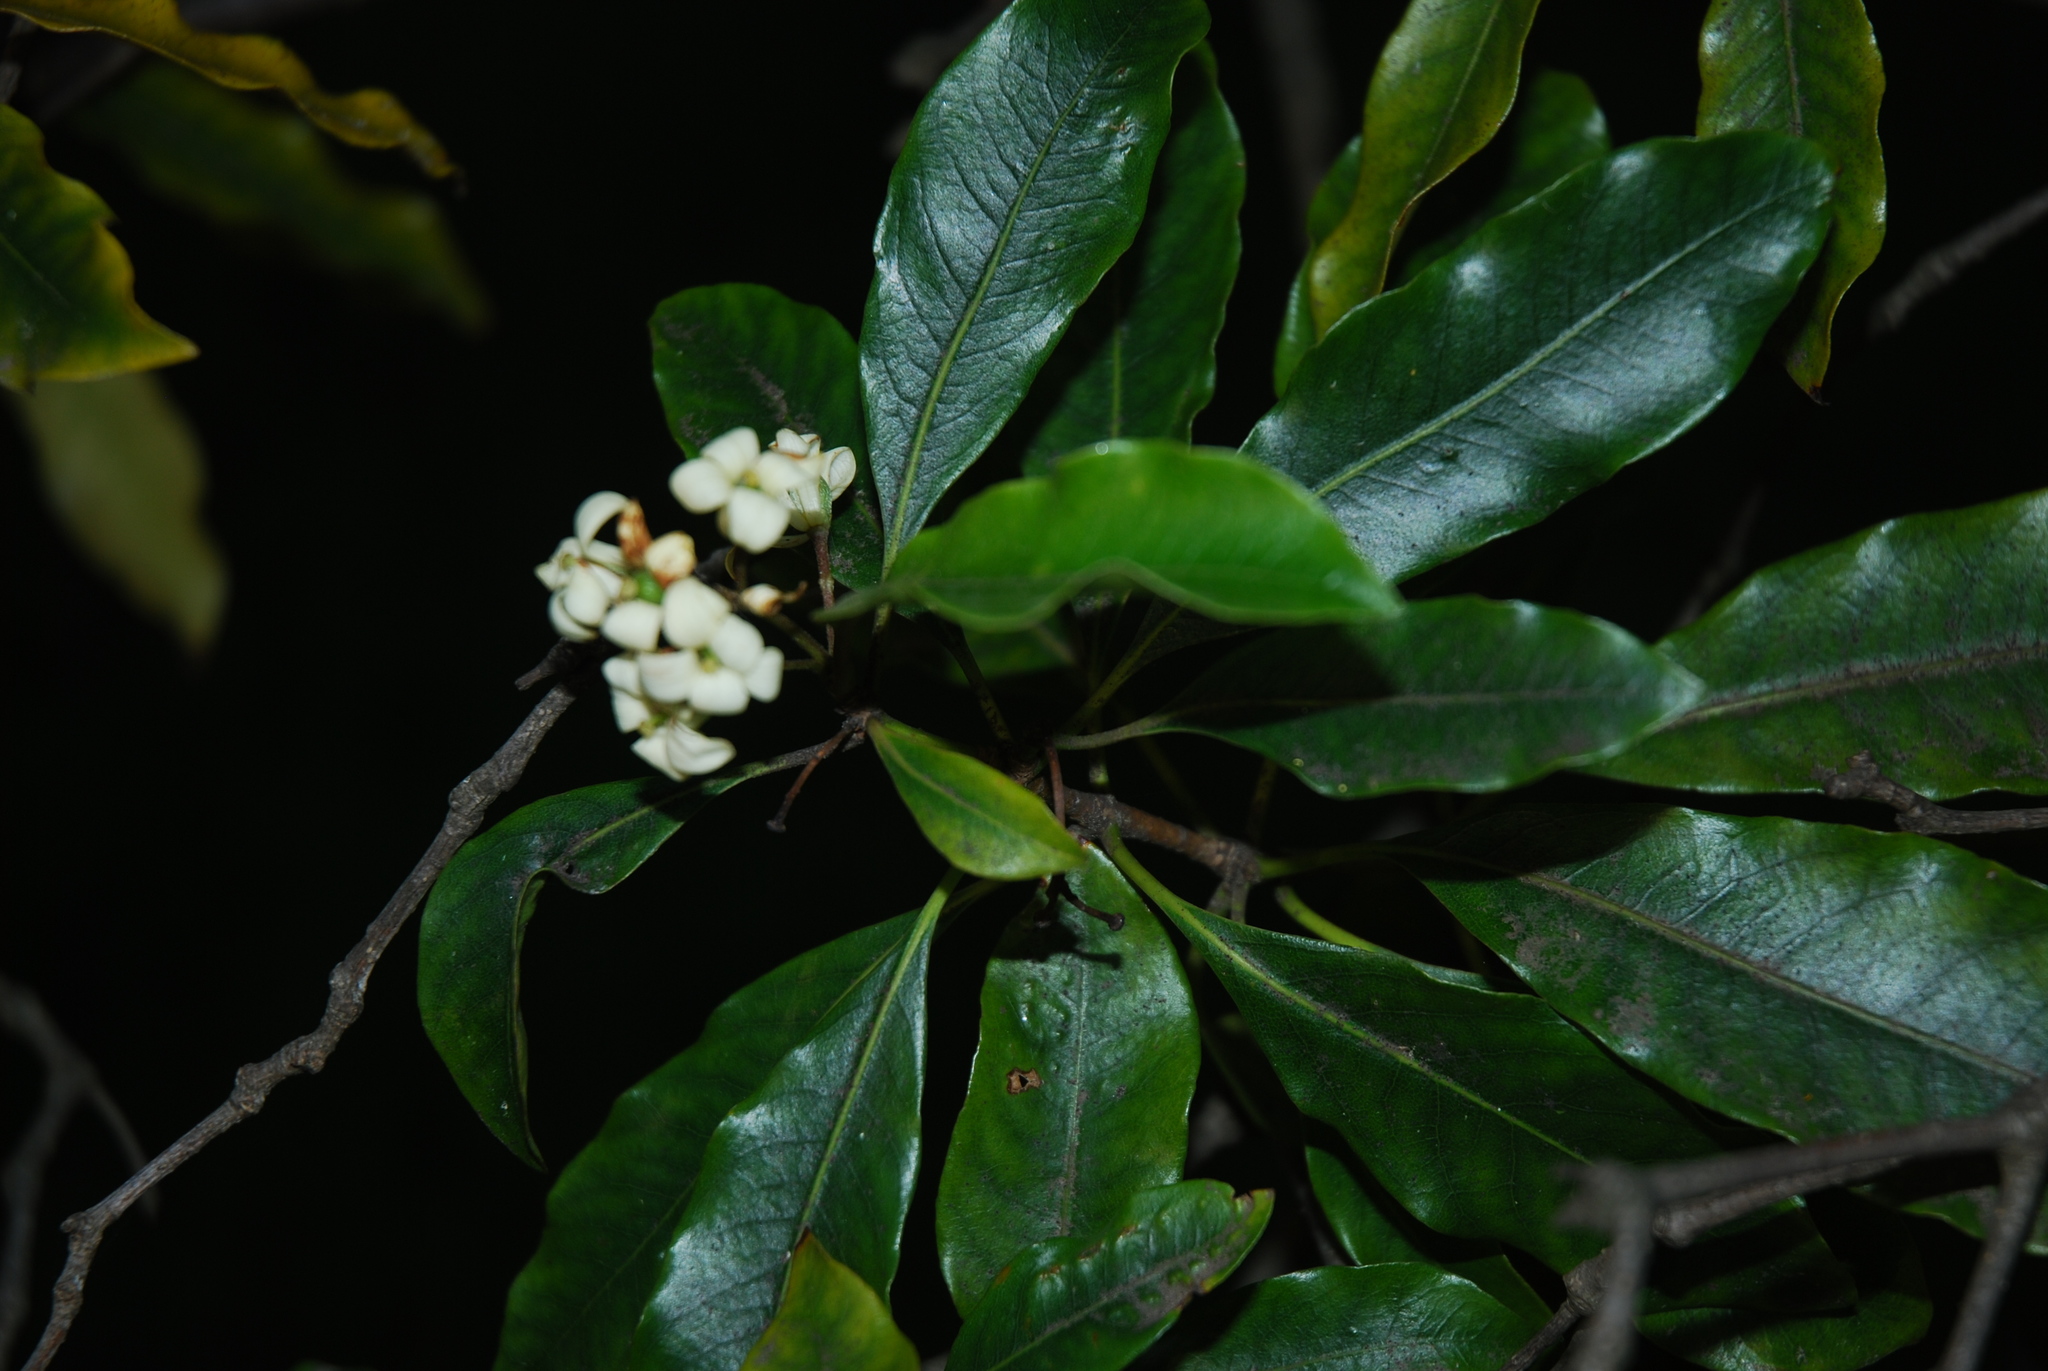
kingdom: Plantae
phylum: Tracheophyta
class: Magnoliopsida
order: Apiales
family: Pittosporaceae
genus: Pittosporum
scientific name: Pittosporum undulatum
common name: Australian cheesewood
